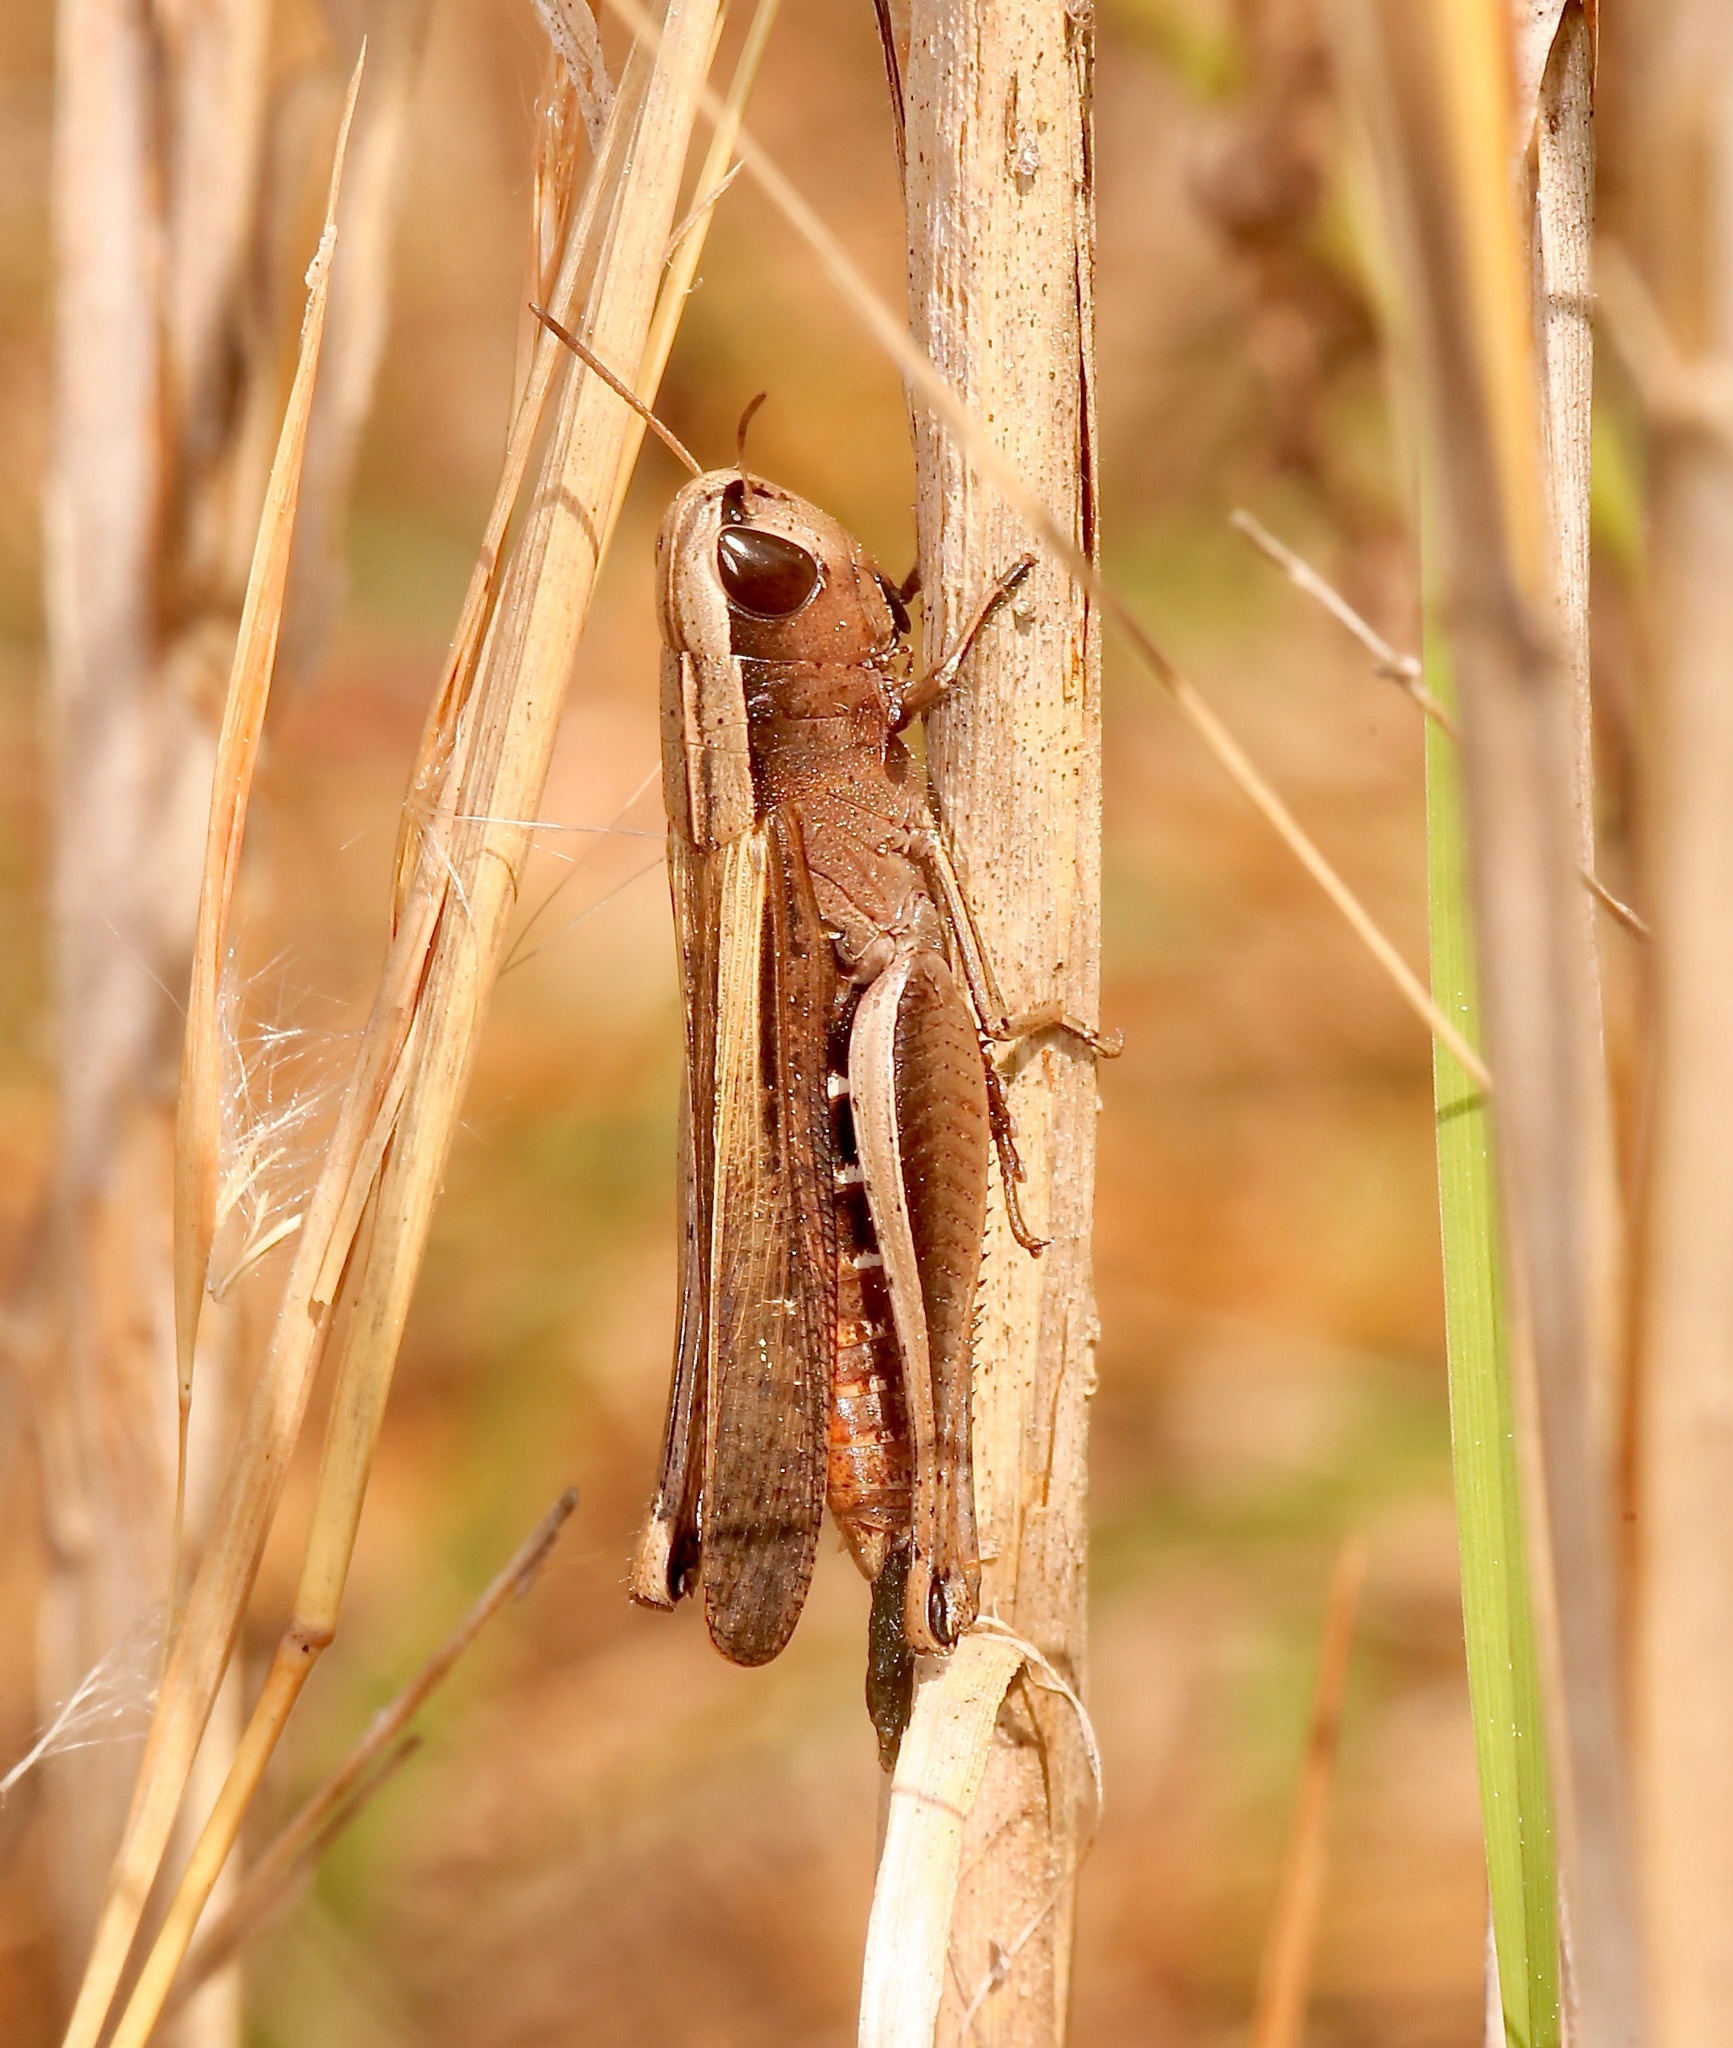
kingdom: Animalia
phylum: Arthropoda
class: Insecta
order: Orthoptera
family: Acrididae
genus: Amblytropidia
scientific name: Amblytropidia mysteca
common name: Brown winter grasshopper
